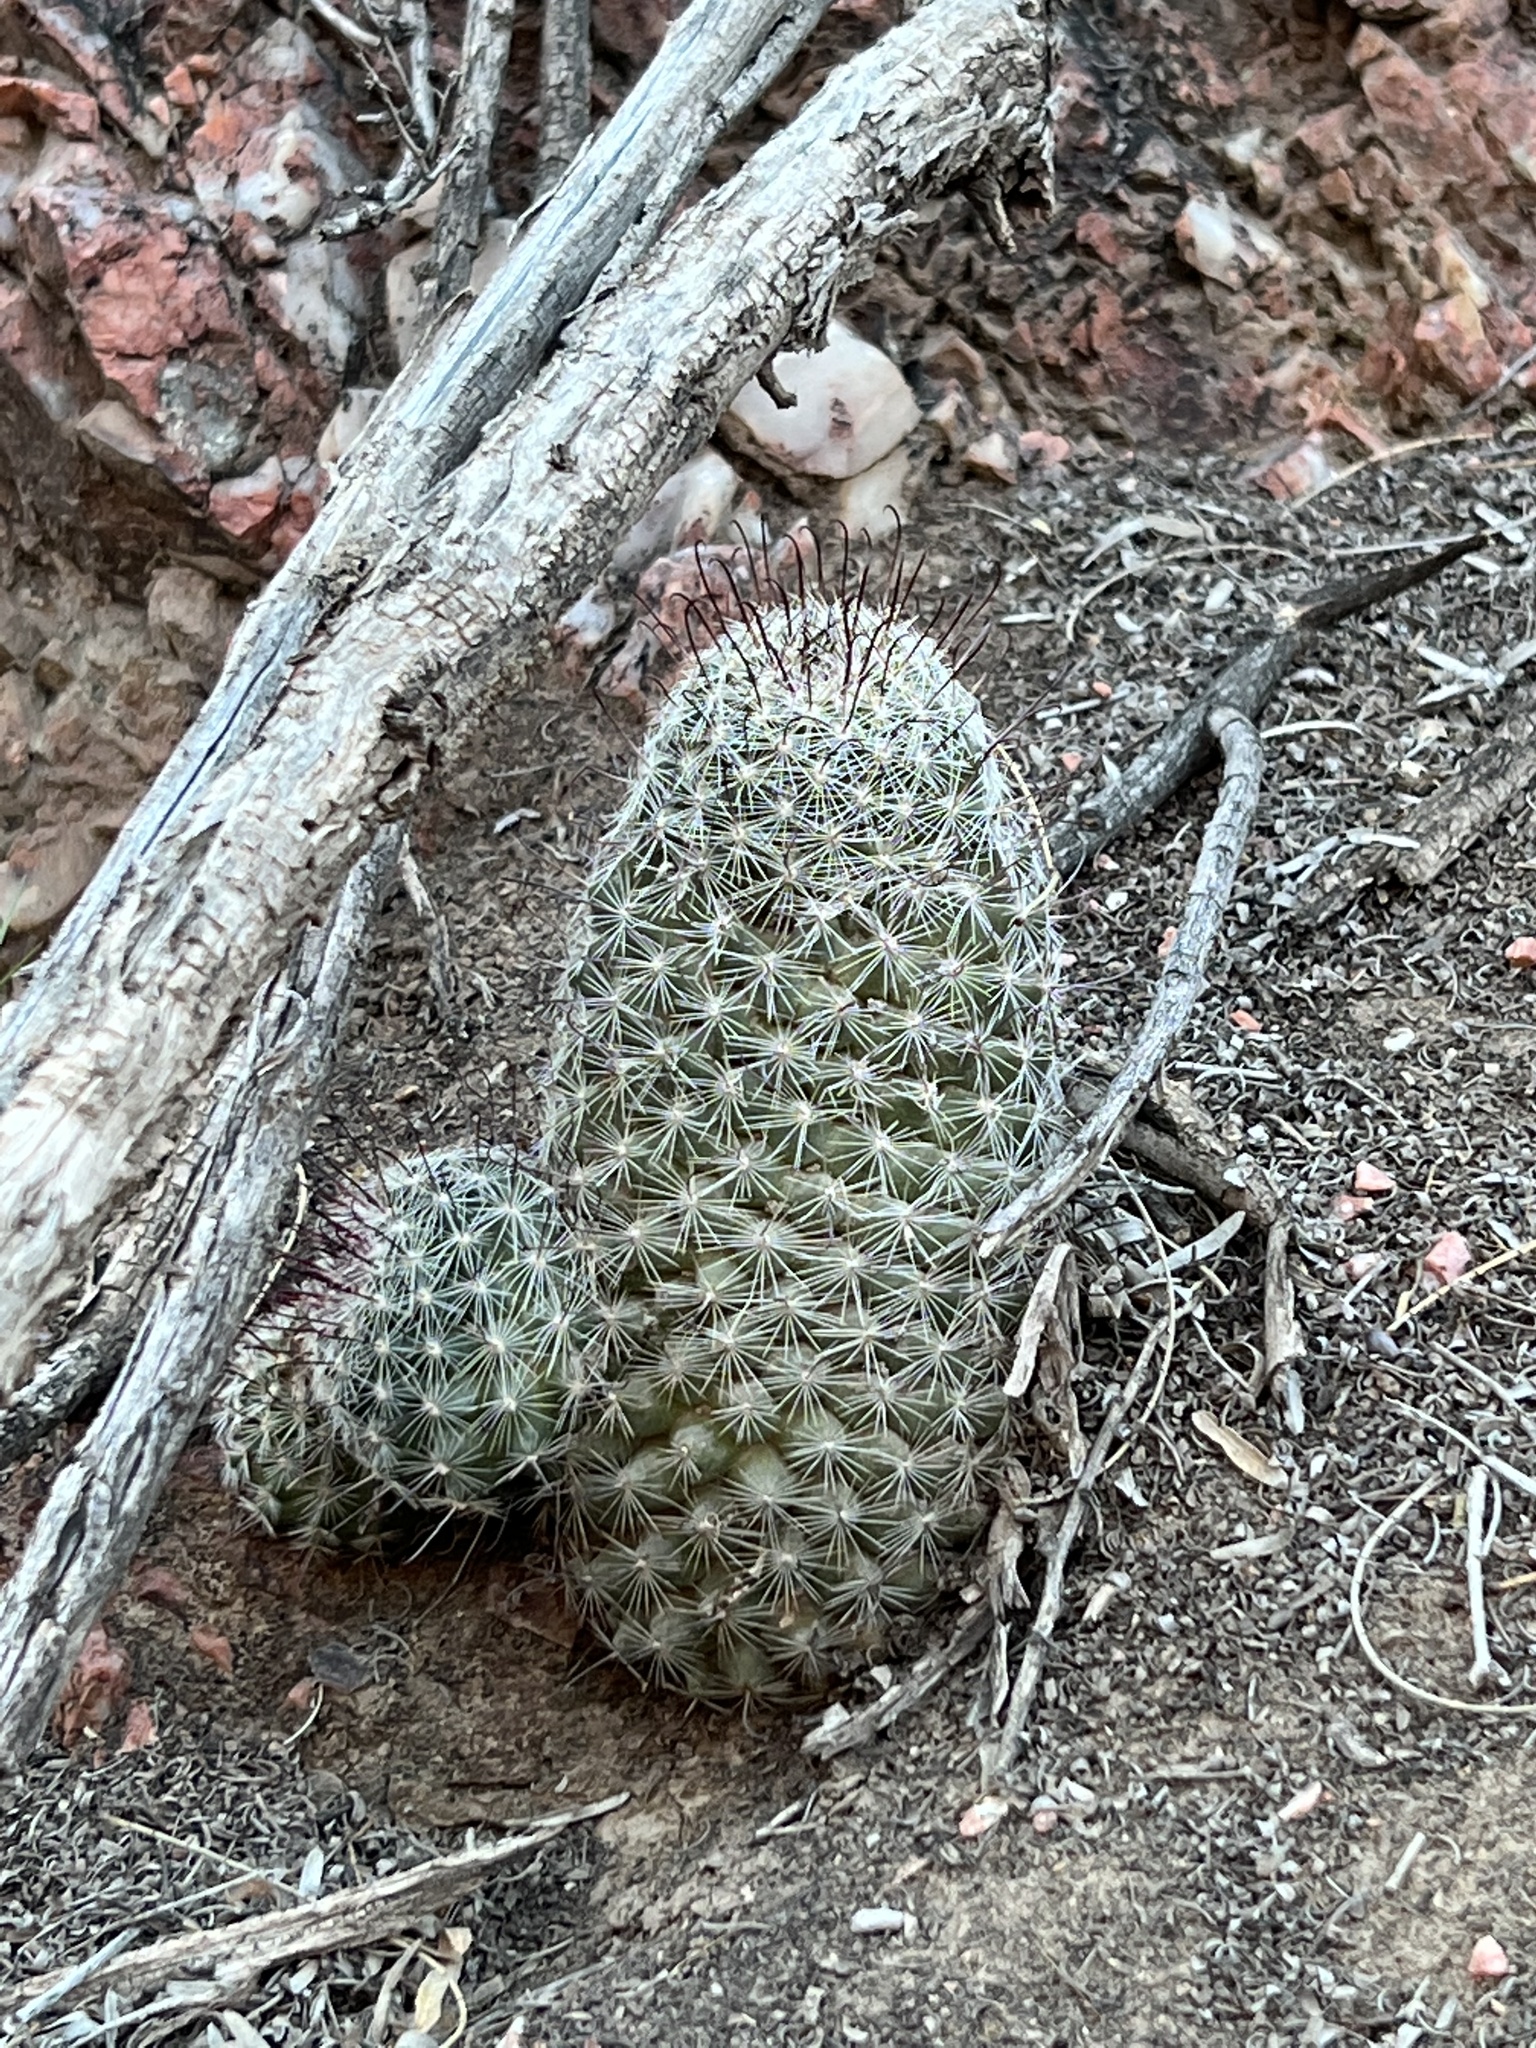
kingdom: Plantae
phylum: Tracheophyta
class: Magnoliopsida
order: Caryophyllales
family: Cactaceae
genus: Cochemiea
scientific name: Cochemiea grahamii
